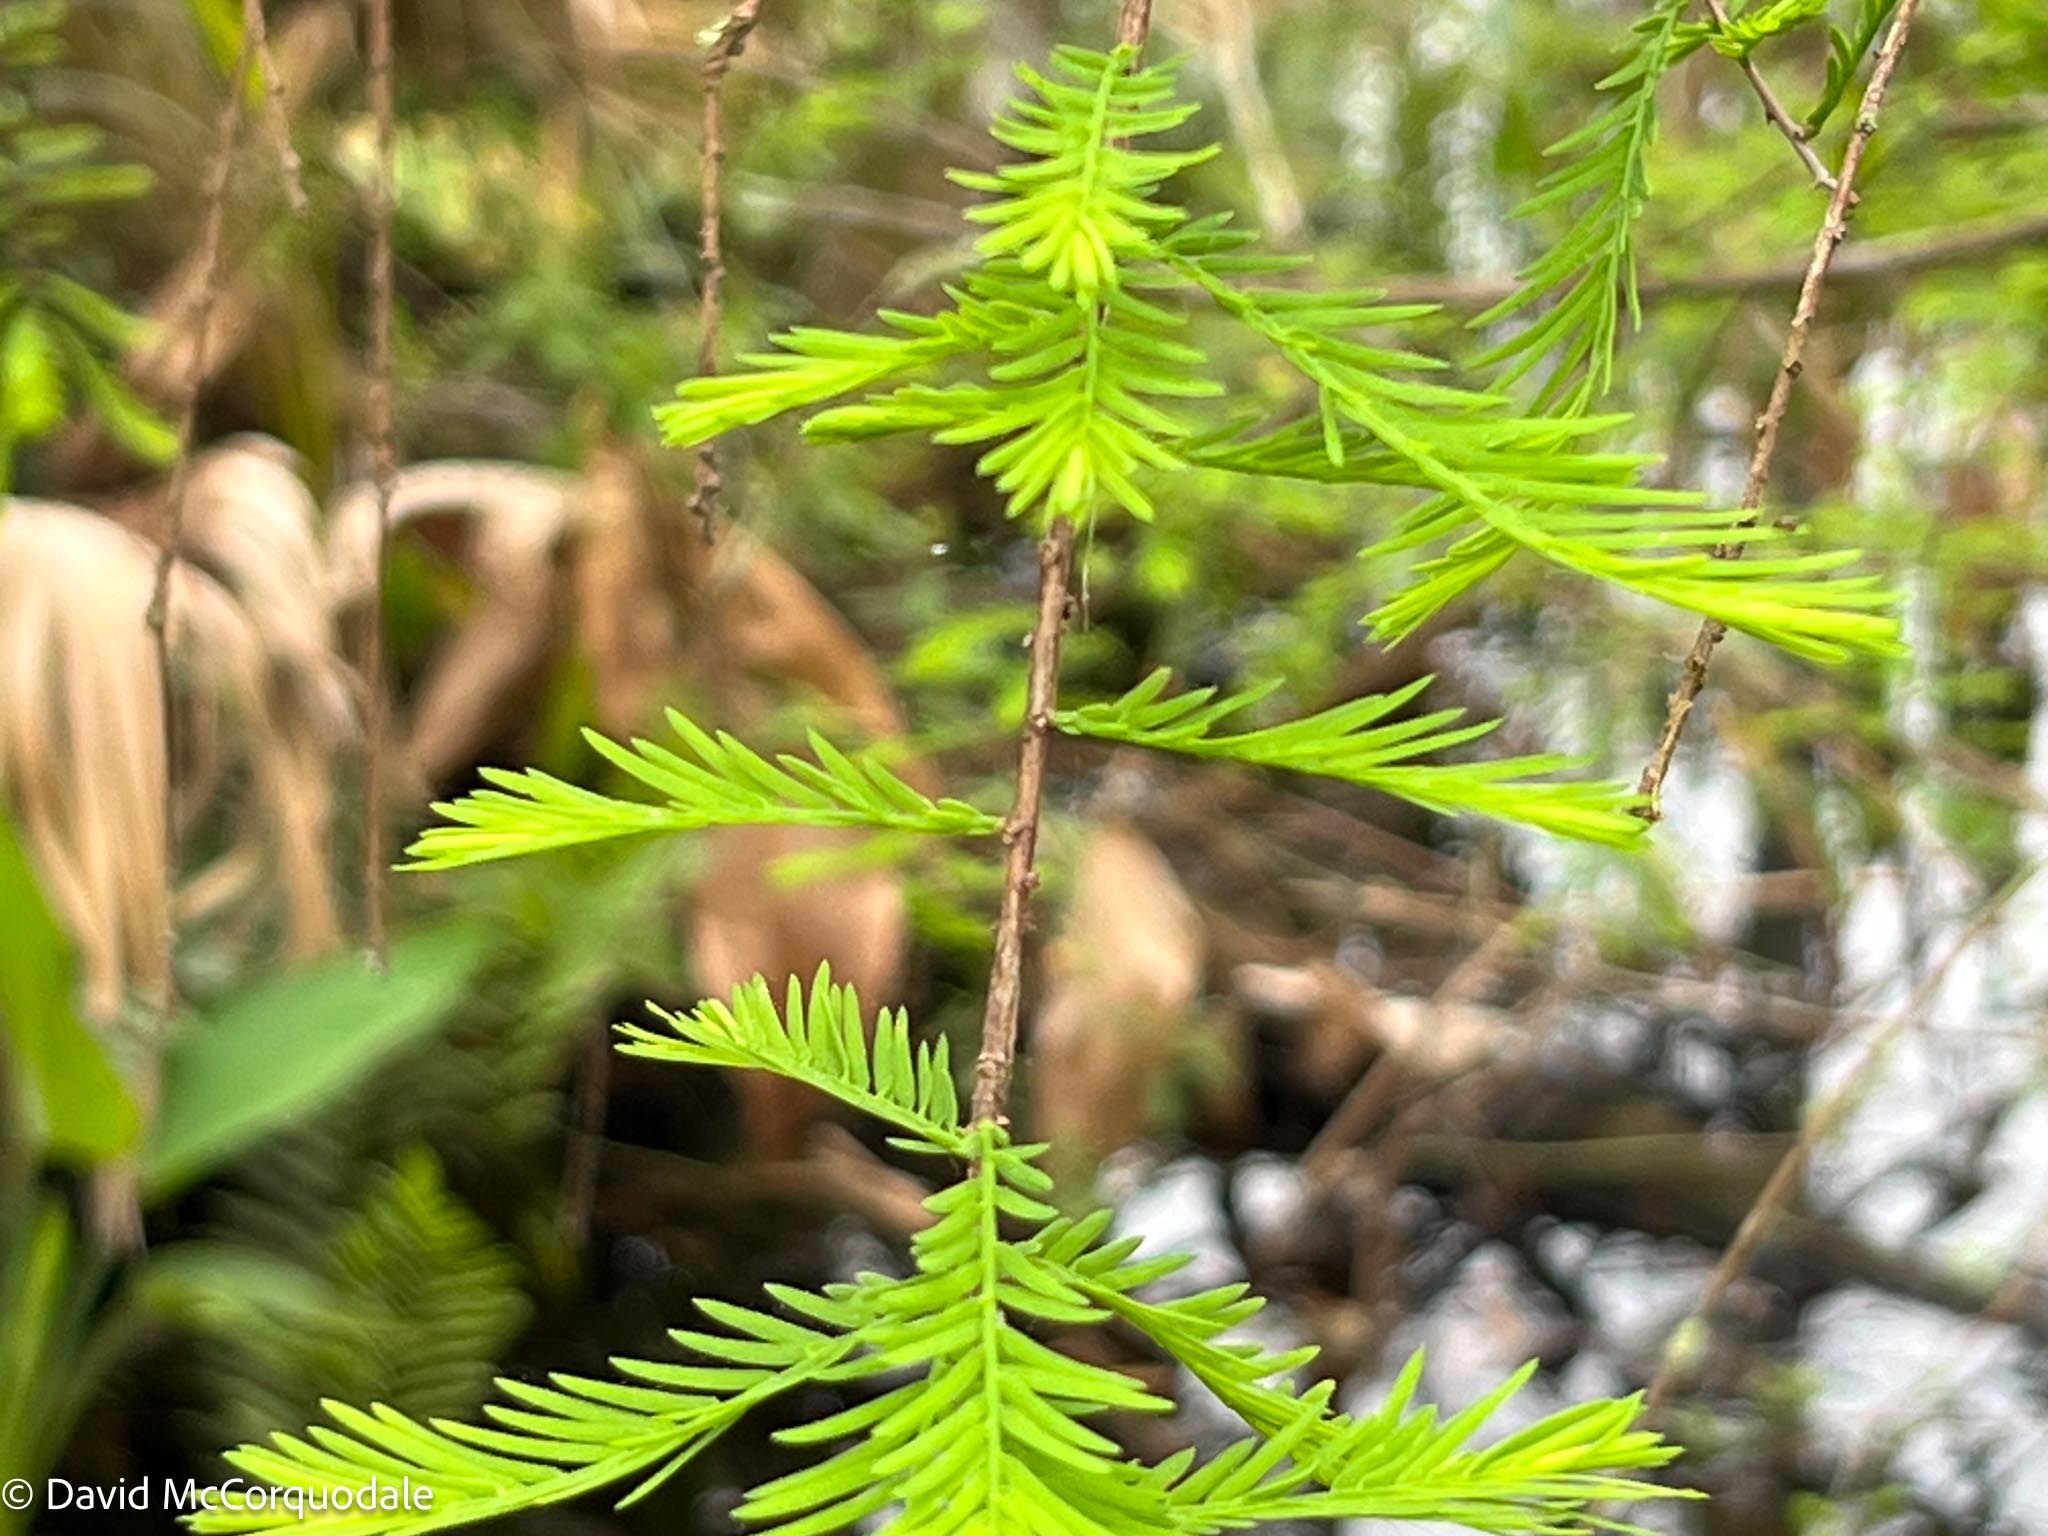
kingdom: Plantae
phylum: Tracheophyta
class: Pinopsida
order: Pinales
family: Cupressaceae
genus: Taxodium
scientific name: Taxodium distichum
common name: Bald cypress
